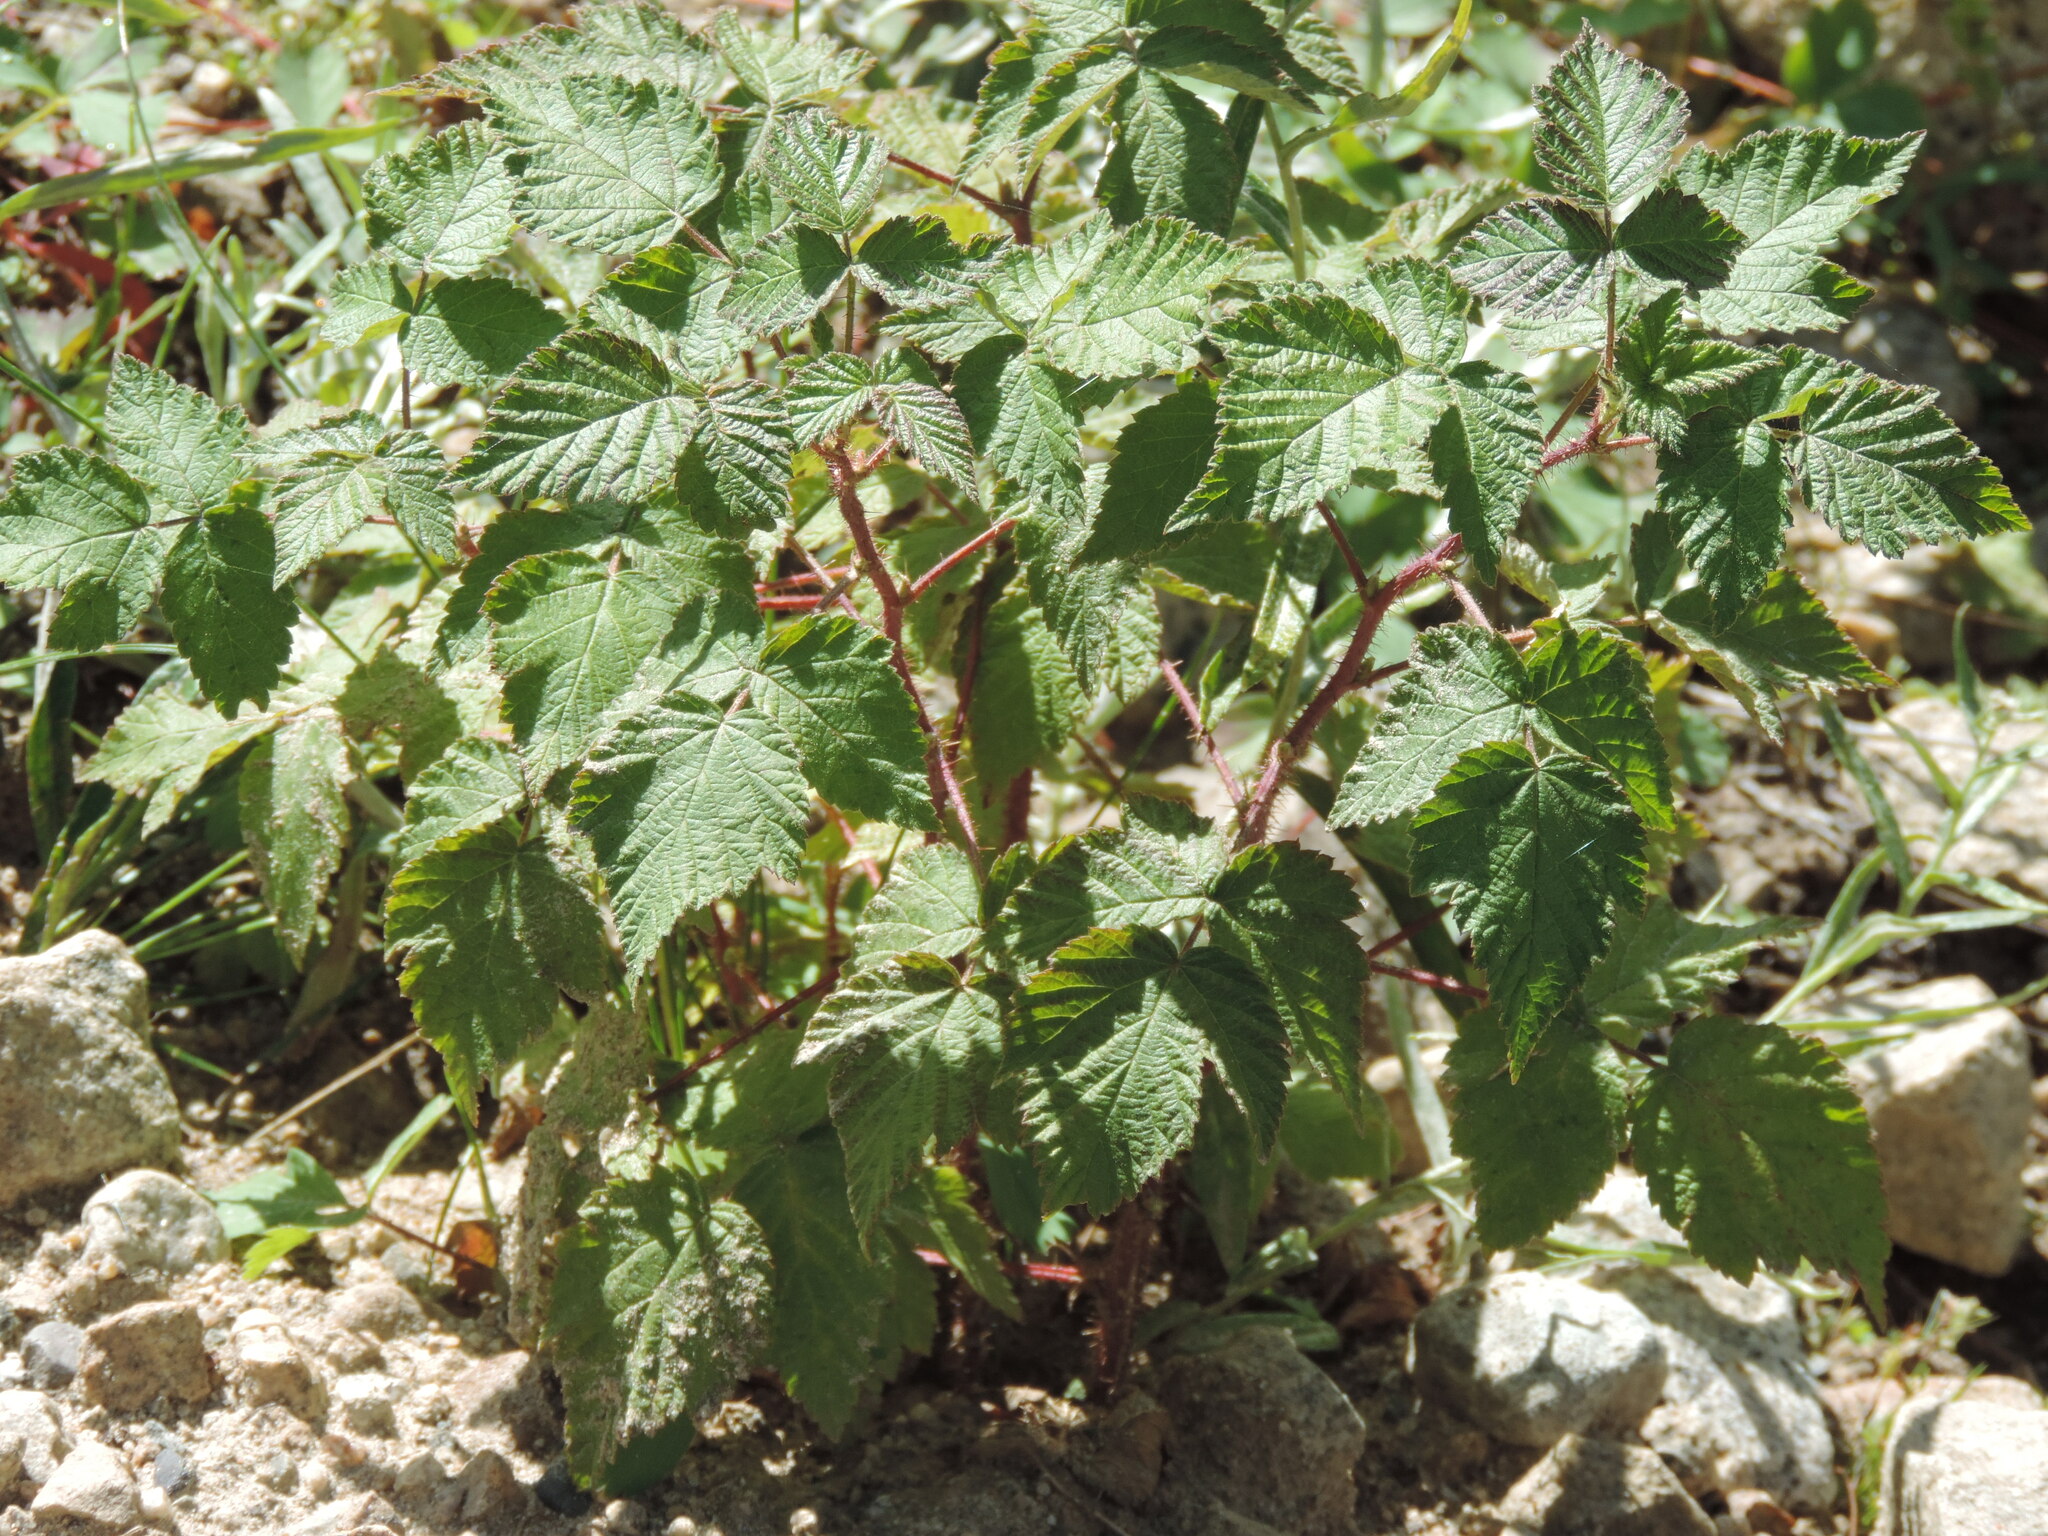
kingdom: Plantae
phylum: Tracheophyta
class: Magnoliopsida
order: Rosales
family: Rosaceae
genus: Rubus
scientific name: Rubus idaeus
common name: Raspberry
